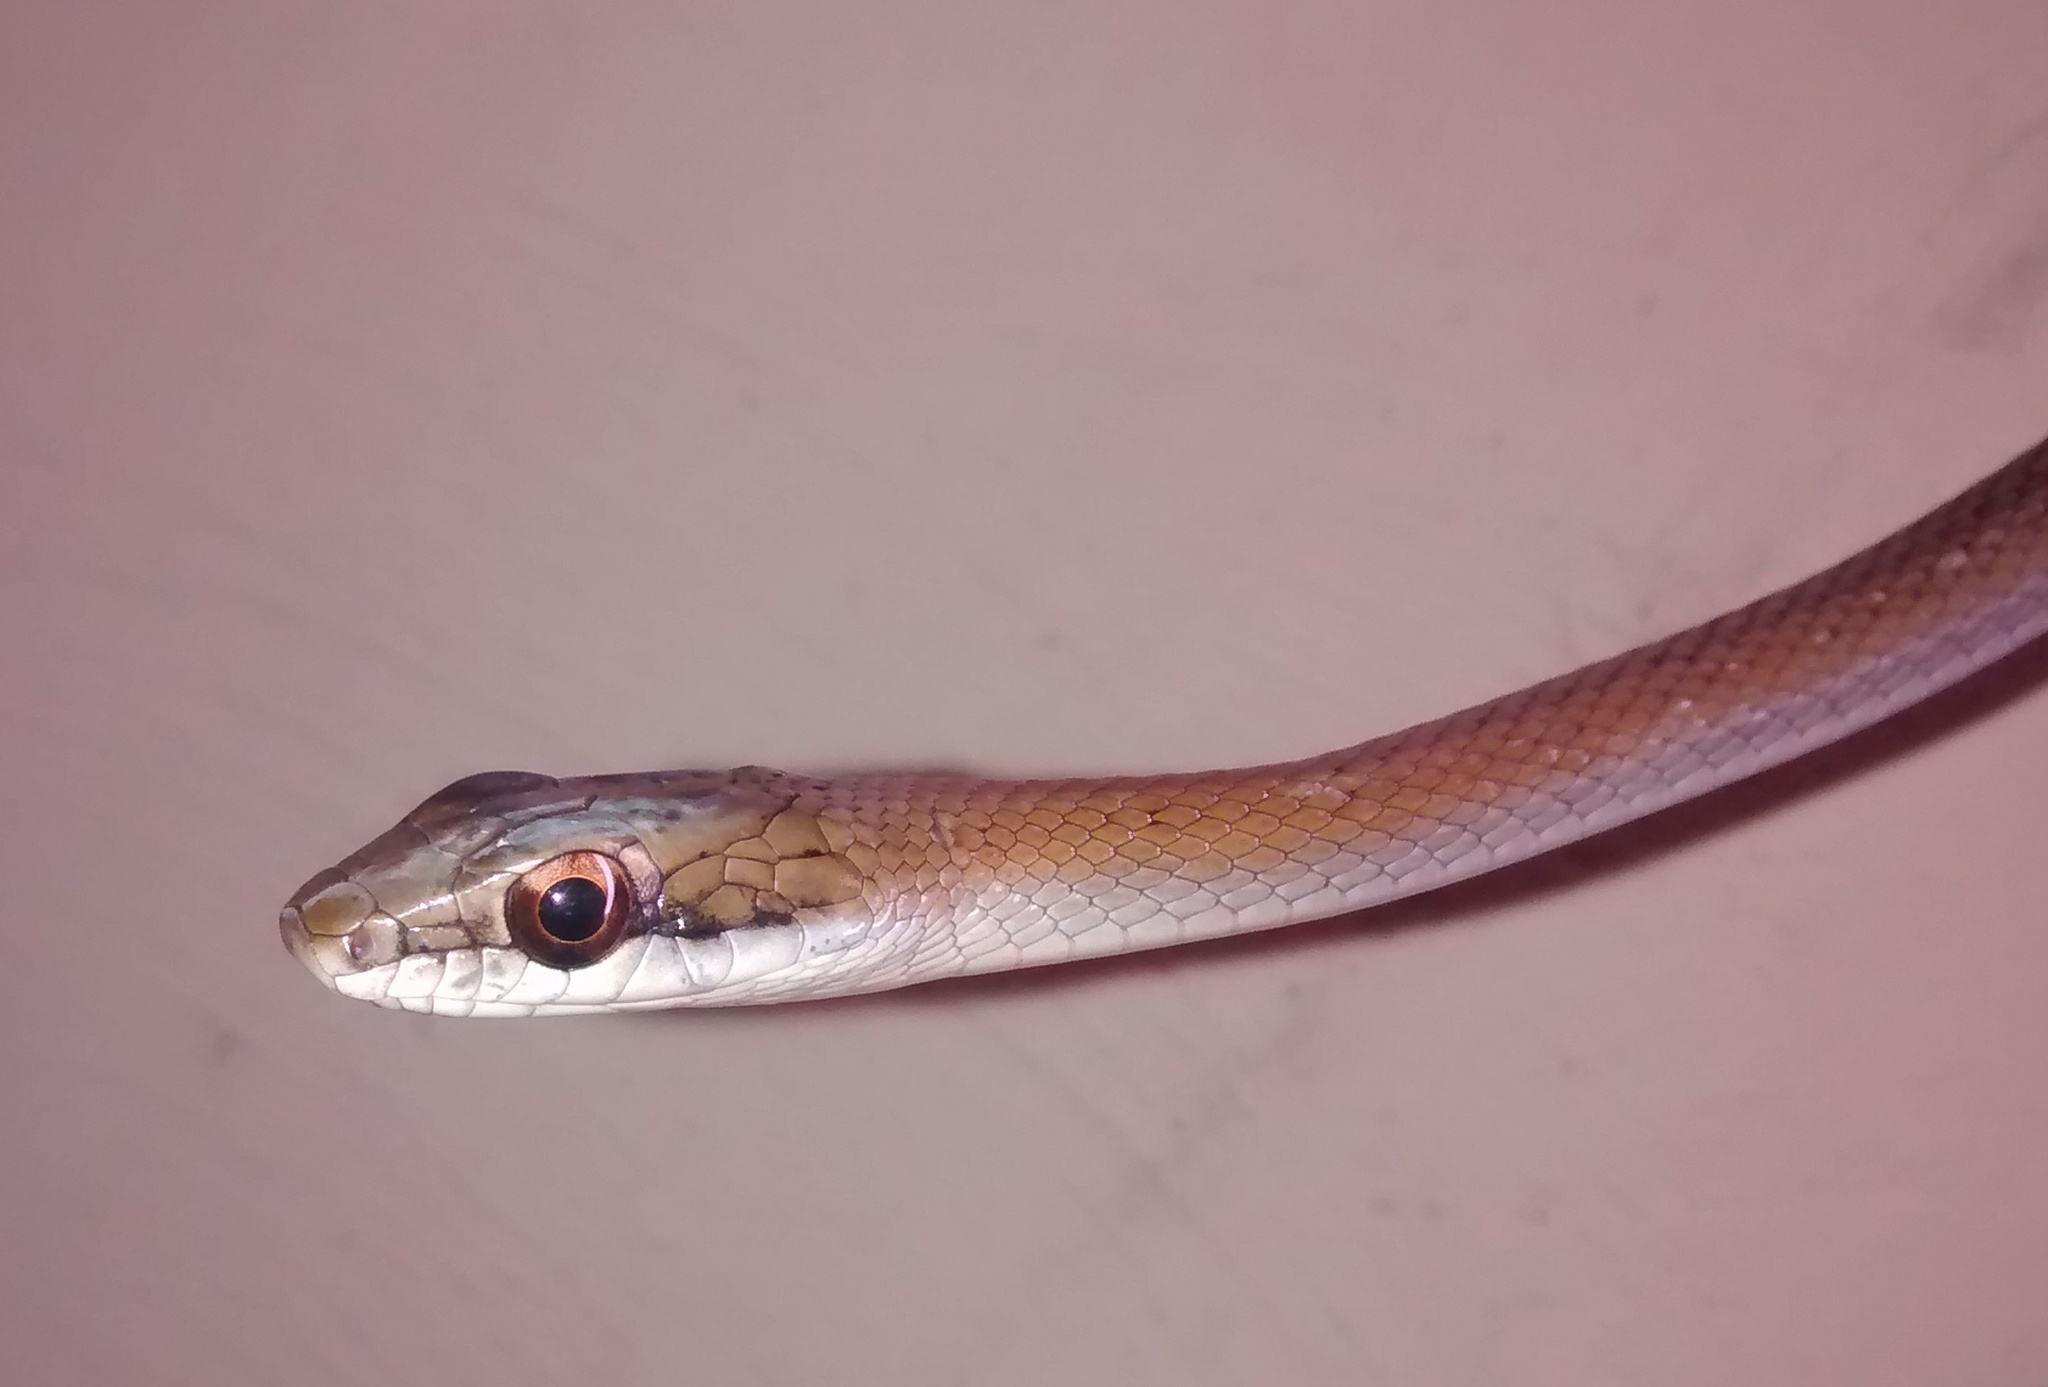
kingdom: Animalia
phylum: Chordata
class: Squamata
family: Colubridae
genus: Mastigodryas
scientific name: Mastigodryas melanolomus
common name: Salmon-bellied racer
